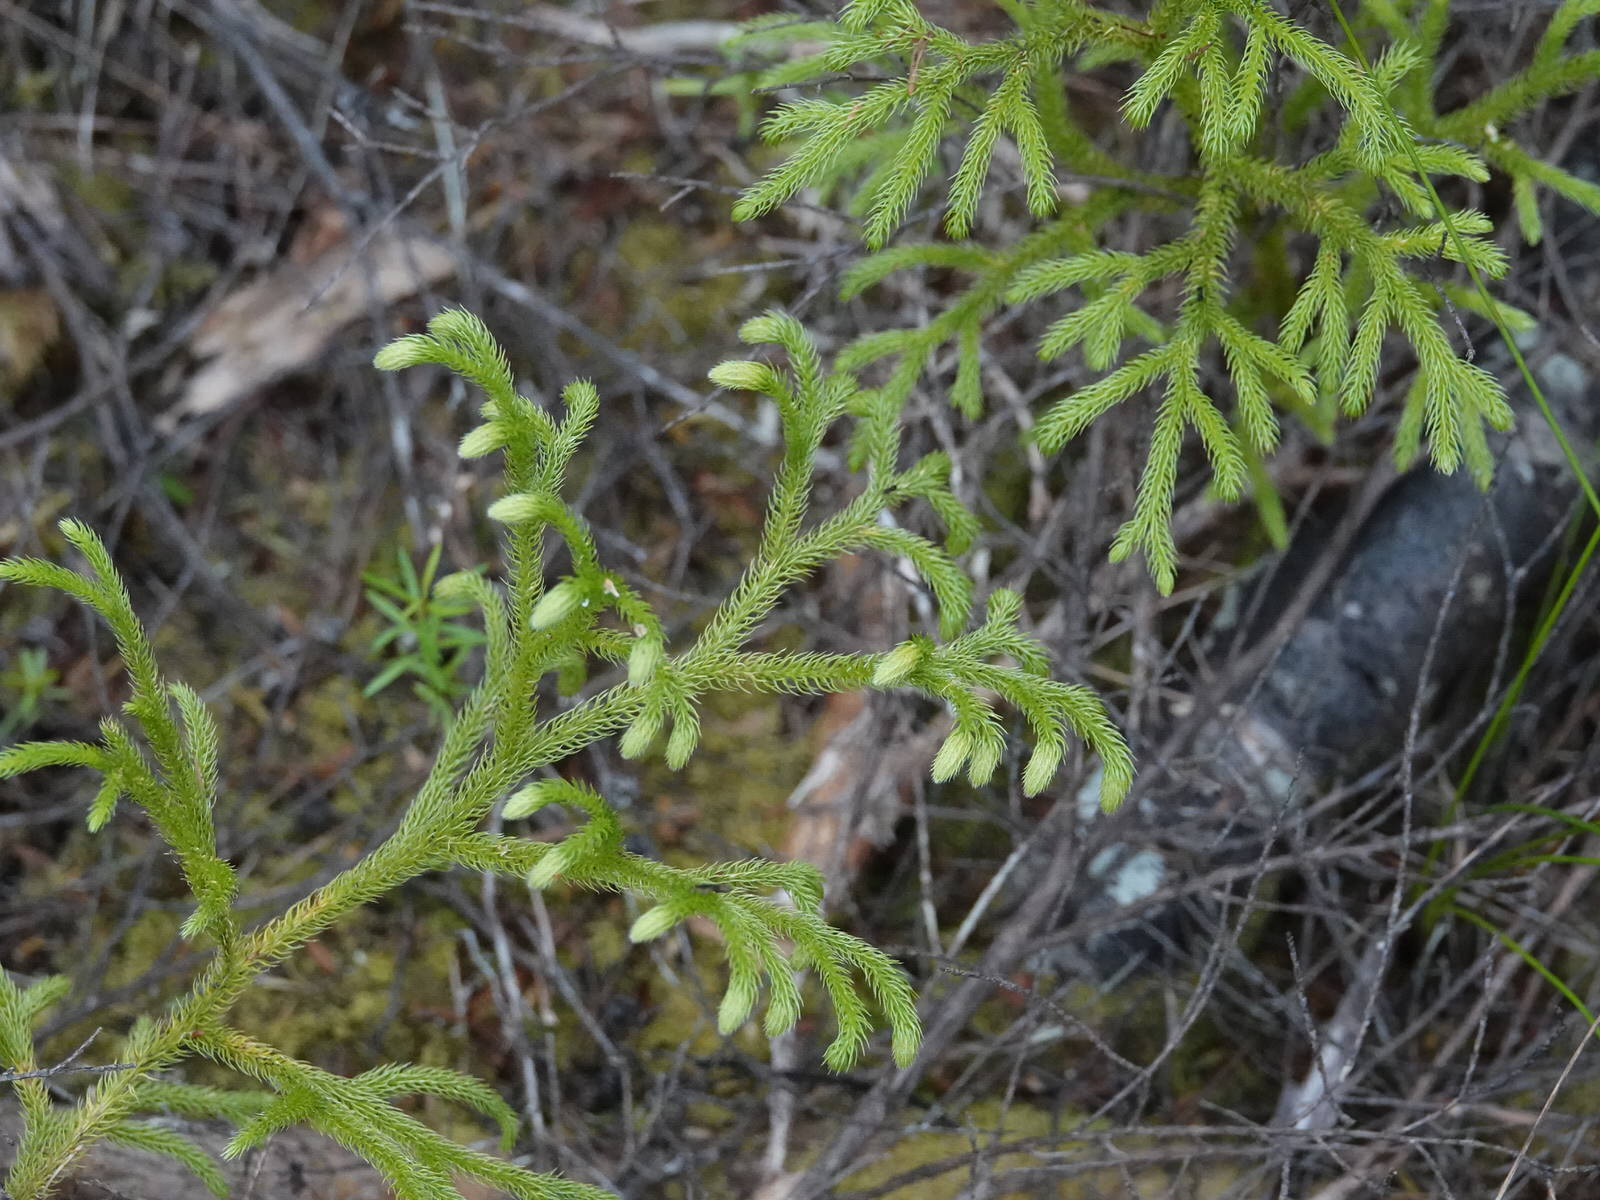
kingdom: Plantae
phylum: Tracheophyta
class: Lycopodiopsida
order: Lycopodiales
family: Lycopodiaceae
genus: Palhinhaea
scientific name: Palhinhaea cernua
